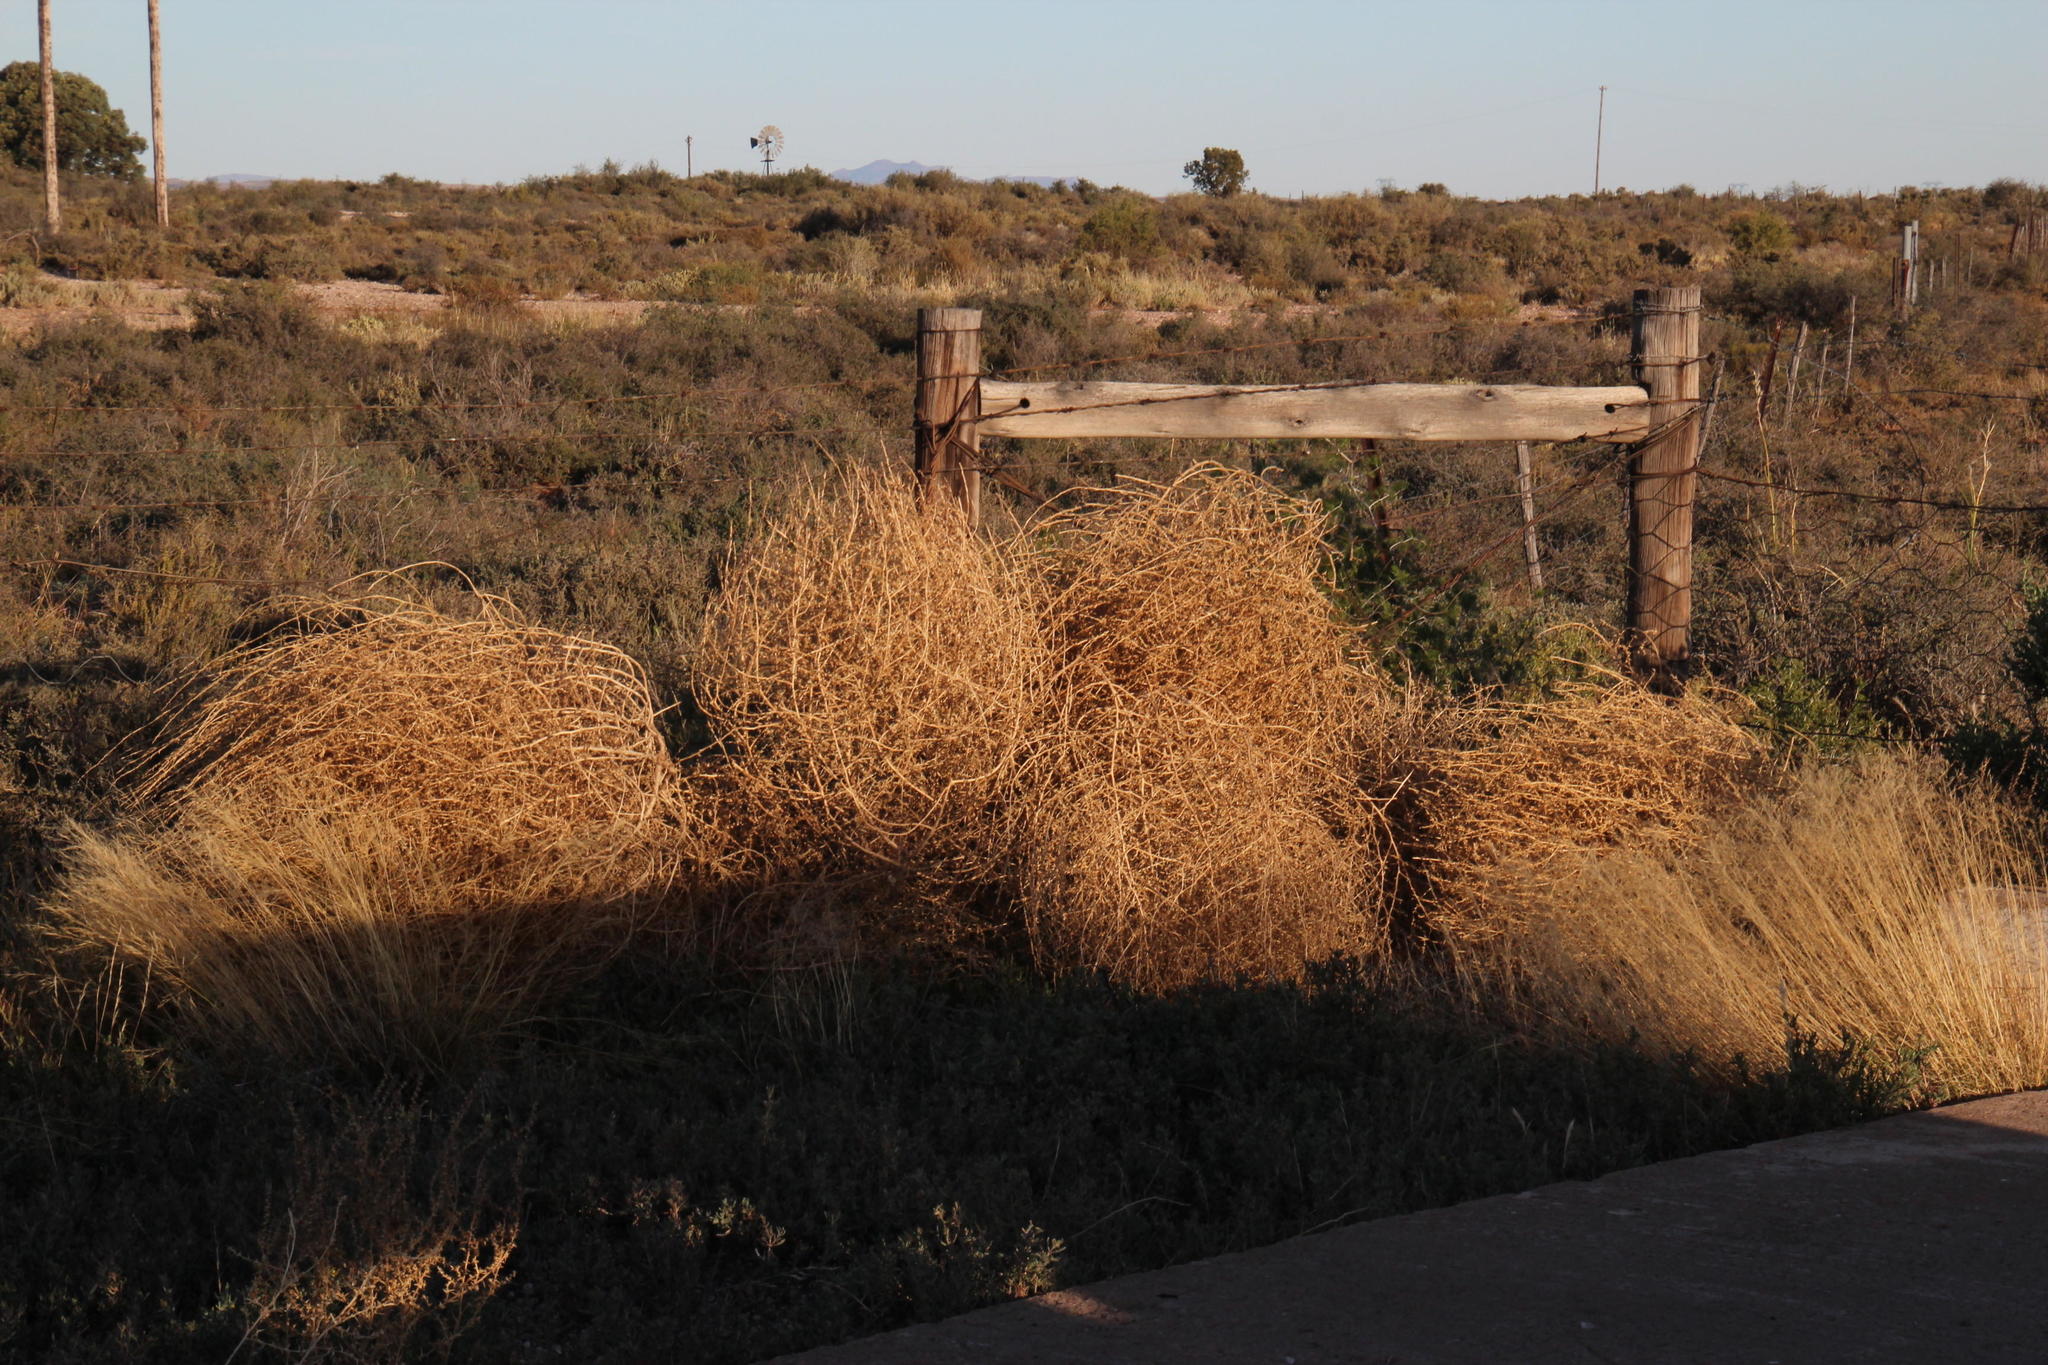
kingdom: Plantae
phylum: Tracheophyta
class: Magnoliopsida
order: Caryophyllales
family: Amaranthaceae
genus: Salsola
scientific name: Salsola kali
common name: Saltwort
